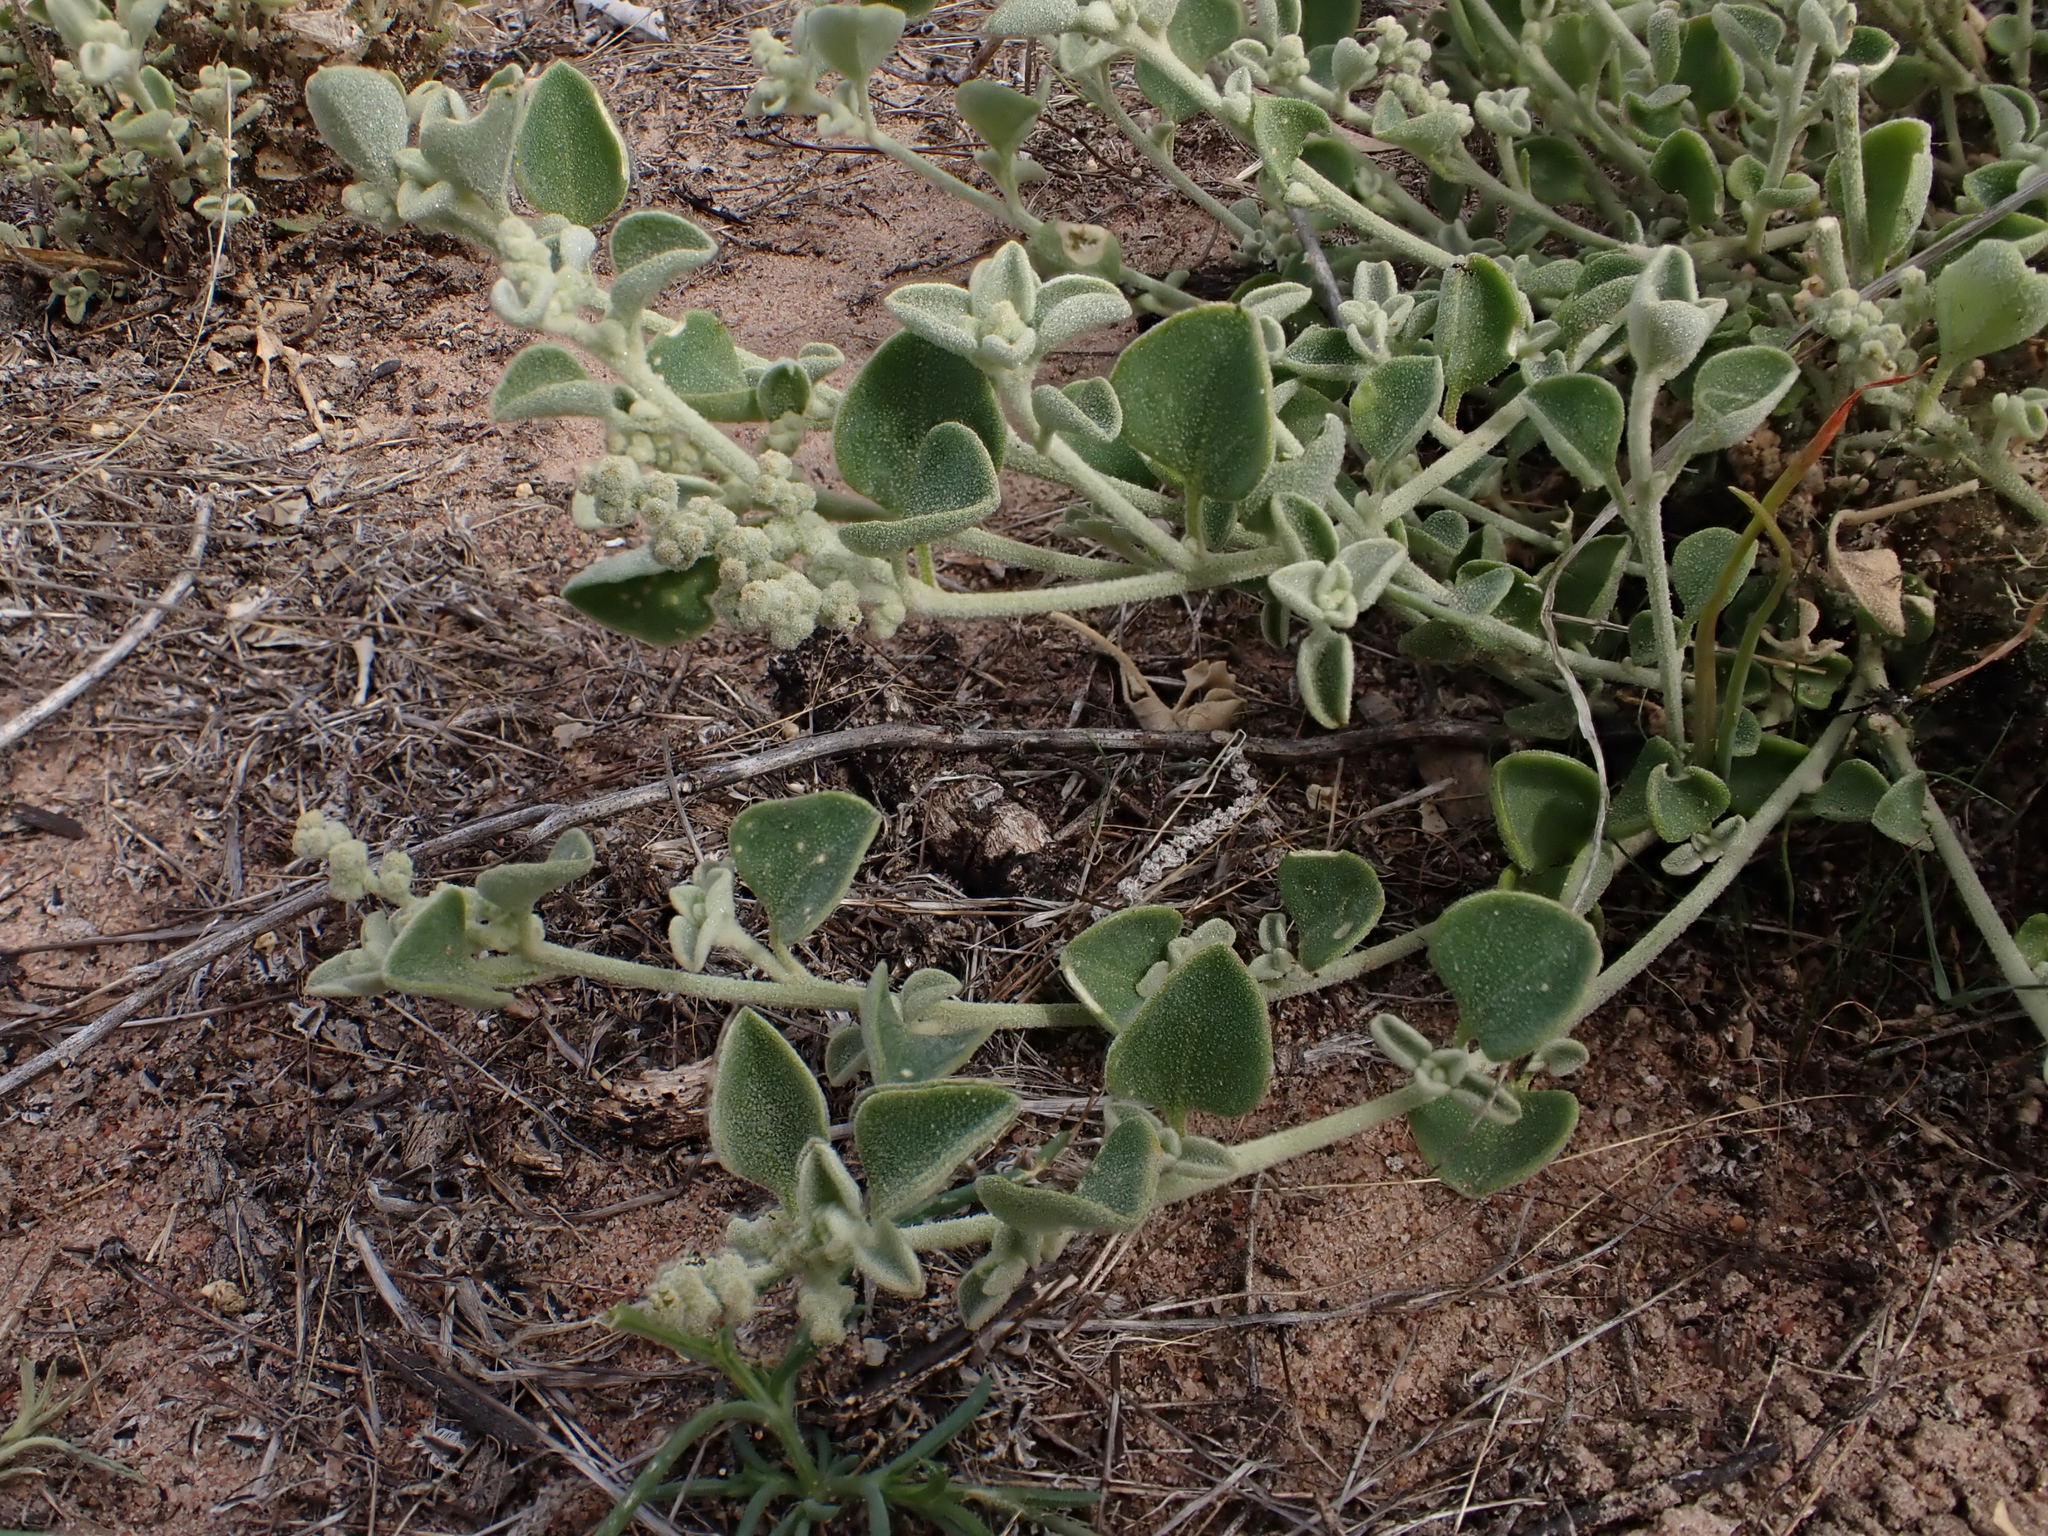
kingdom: Plantae
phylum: Tracheophyta
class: Magnoliopsida
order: Caryophyllales
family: Amaranthaceae
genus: Chenopodium
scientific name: Chenopodium desertorum
